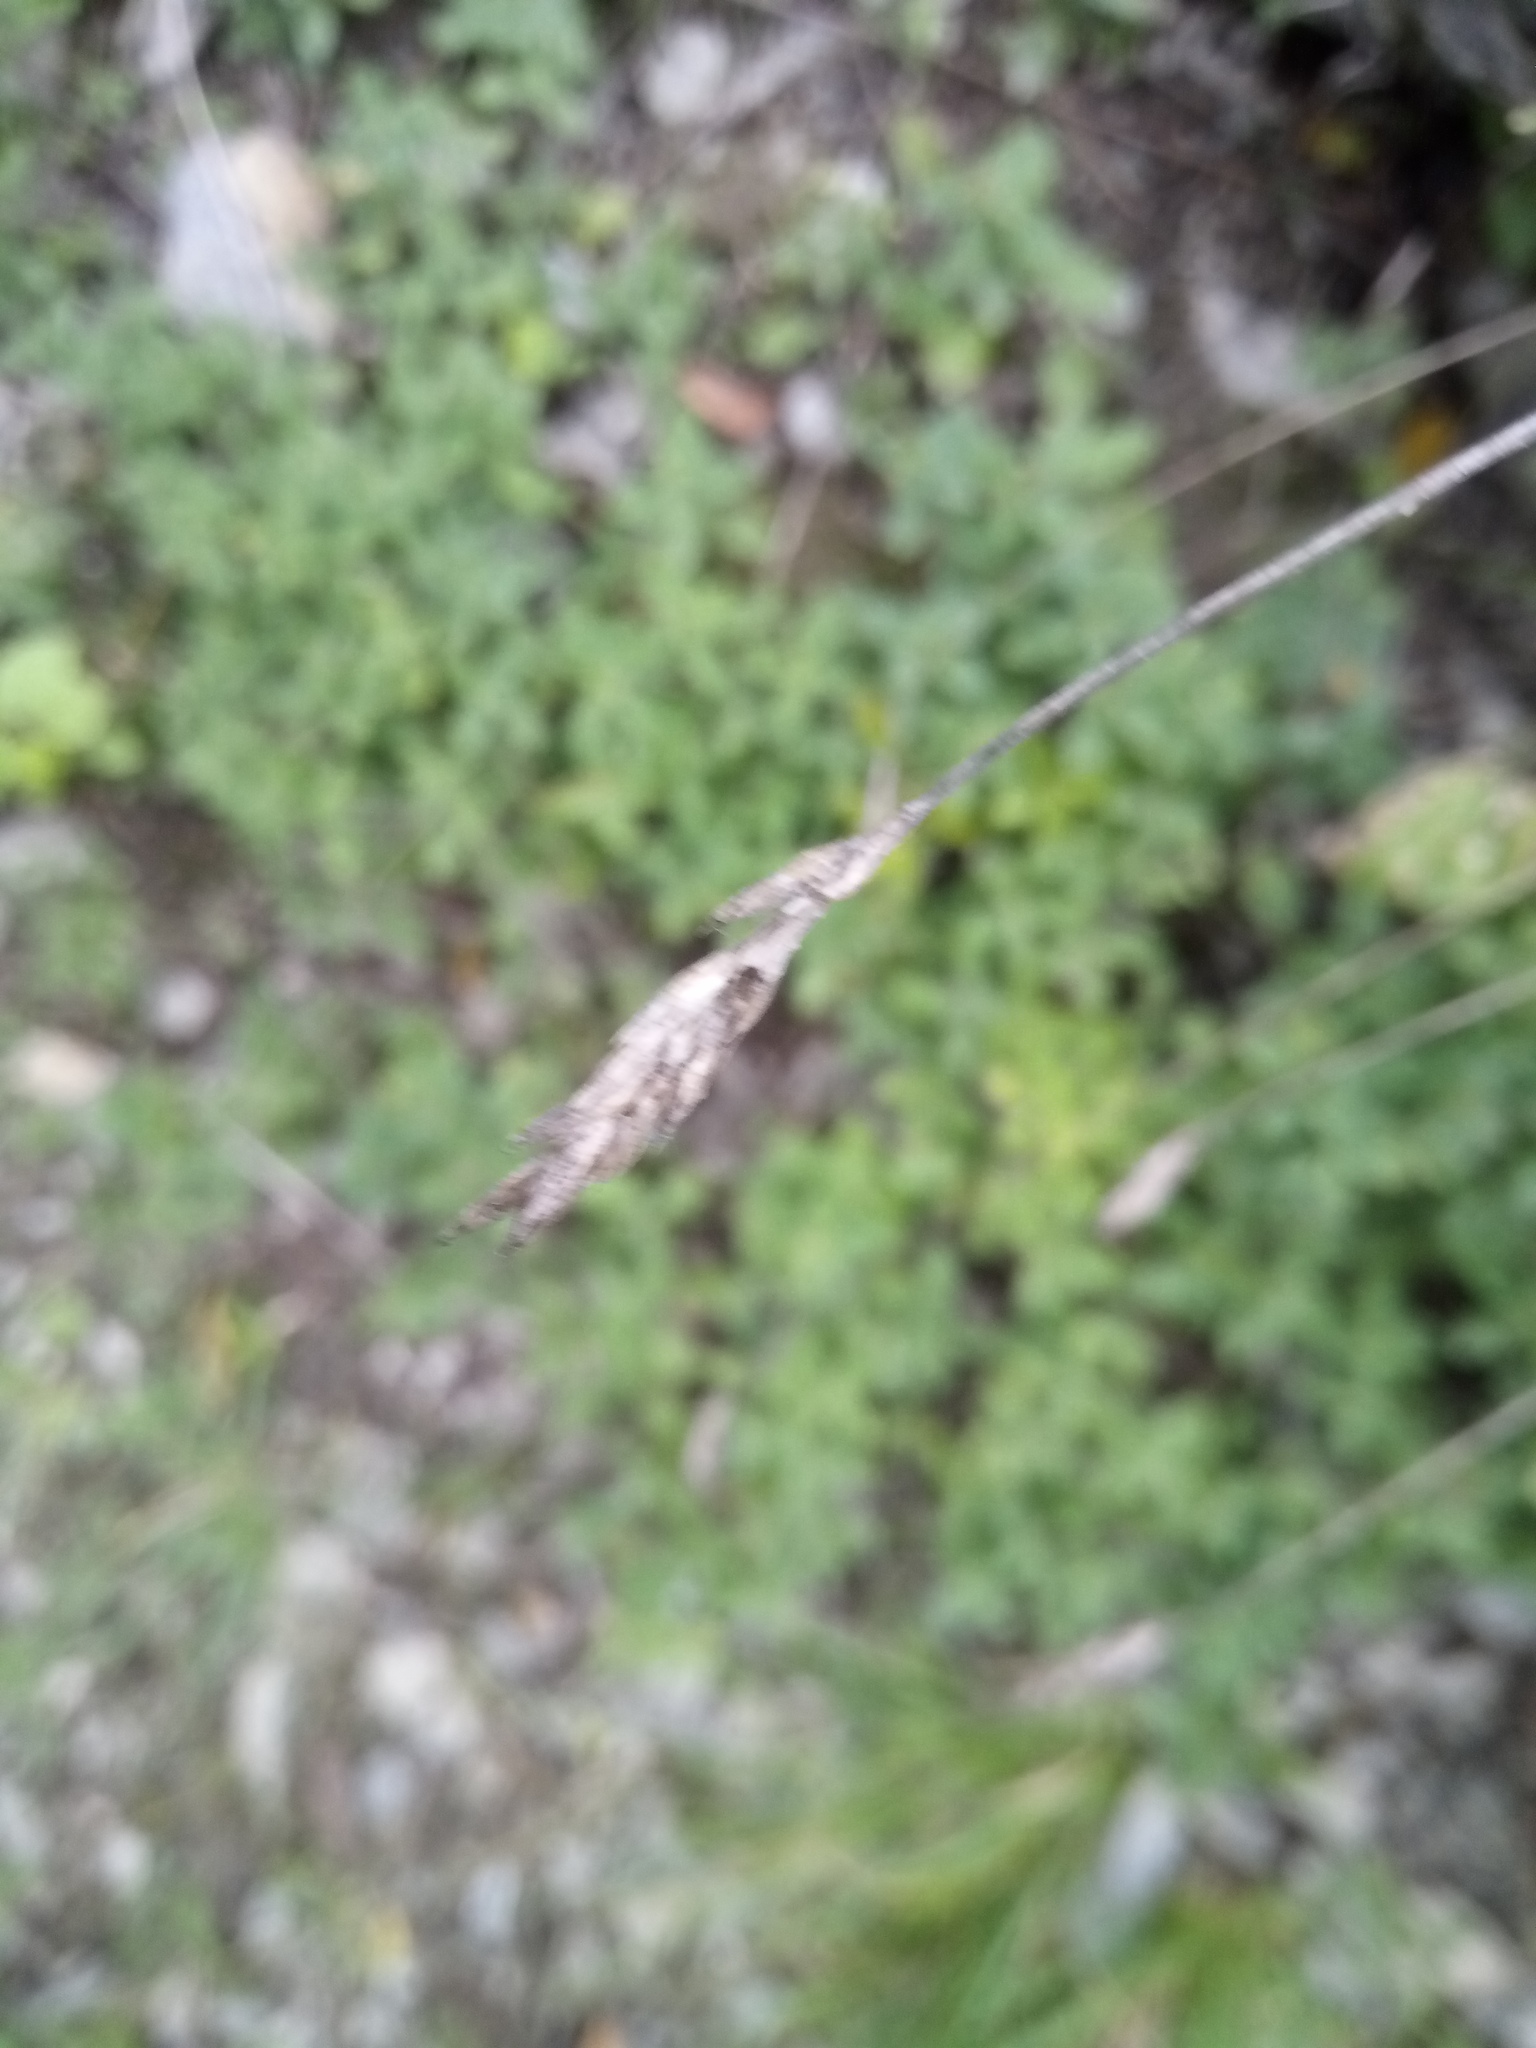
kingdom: Plantae
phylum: Tracheophyta
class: Liliopsida
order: Poales
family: Poaceae
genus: Sesleria
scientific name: Sesleria caerulea
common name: Blue moor-grass
